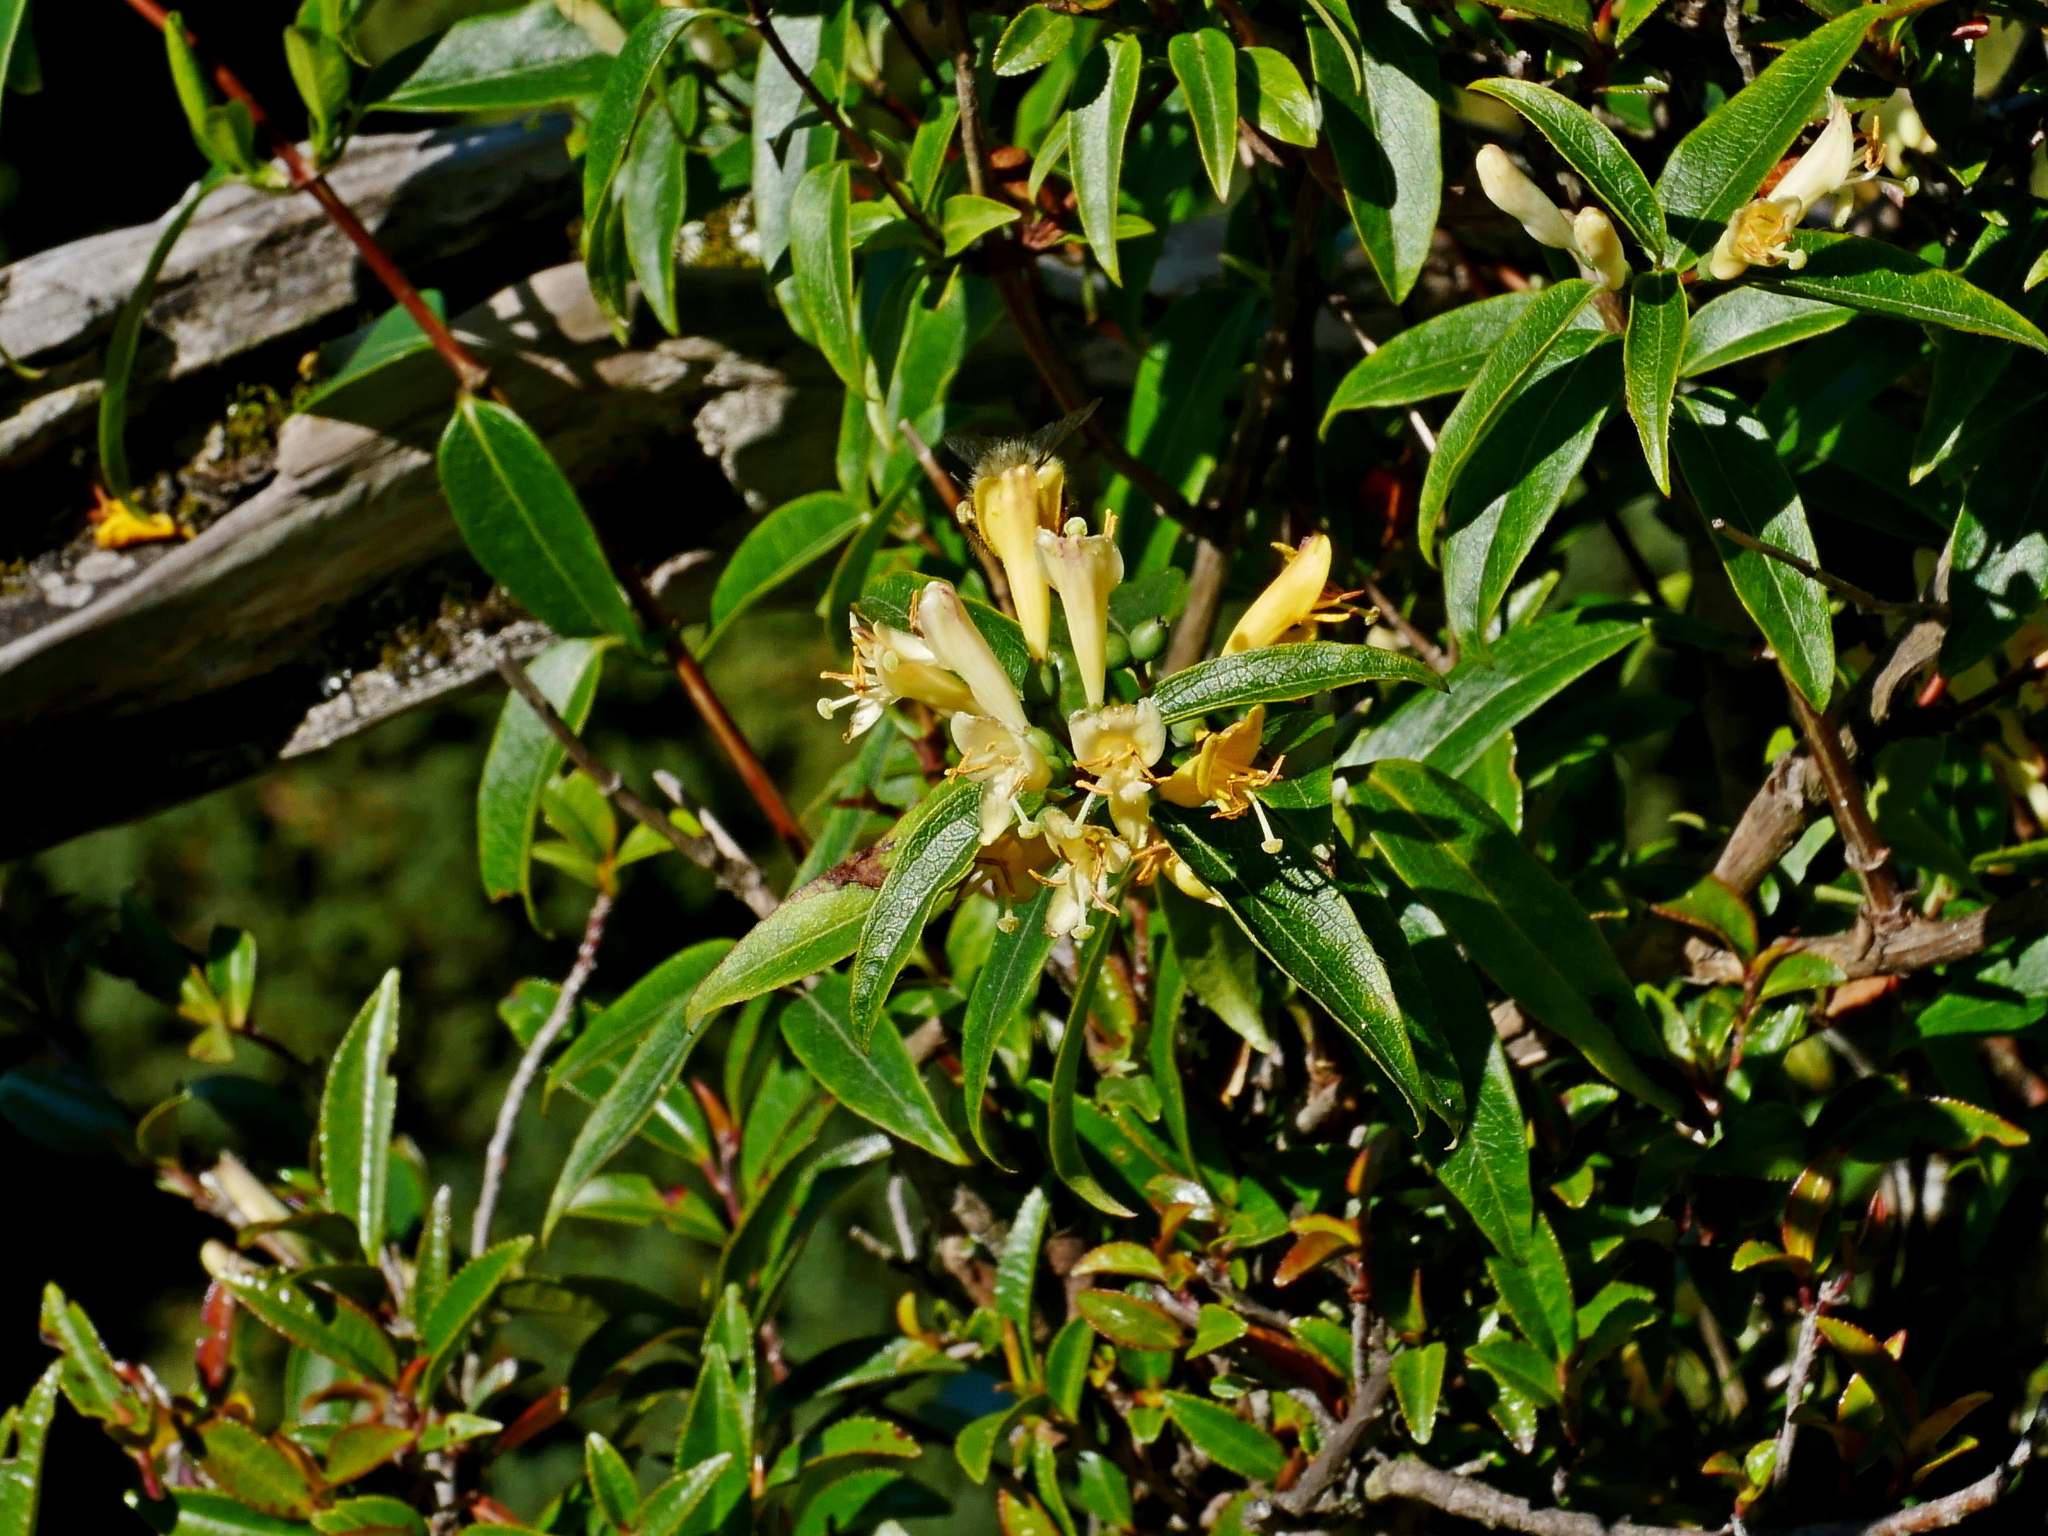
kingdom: Plantae
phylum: Tracheophyta
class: Magnoliopsida
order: Dipsacales
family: Caprifoliaceae
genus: Lonicera
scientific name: Lonicera acuminata
